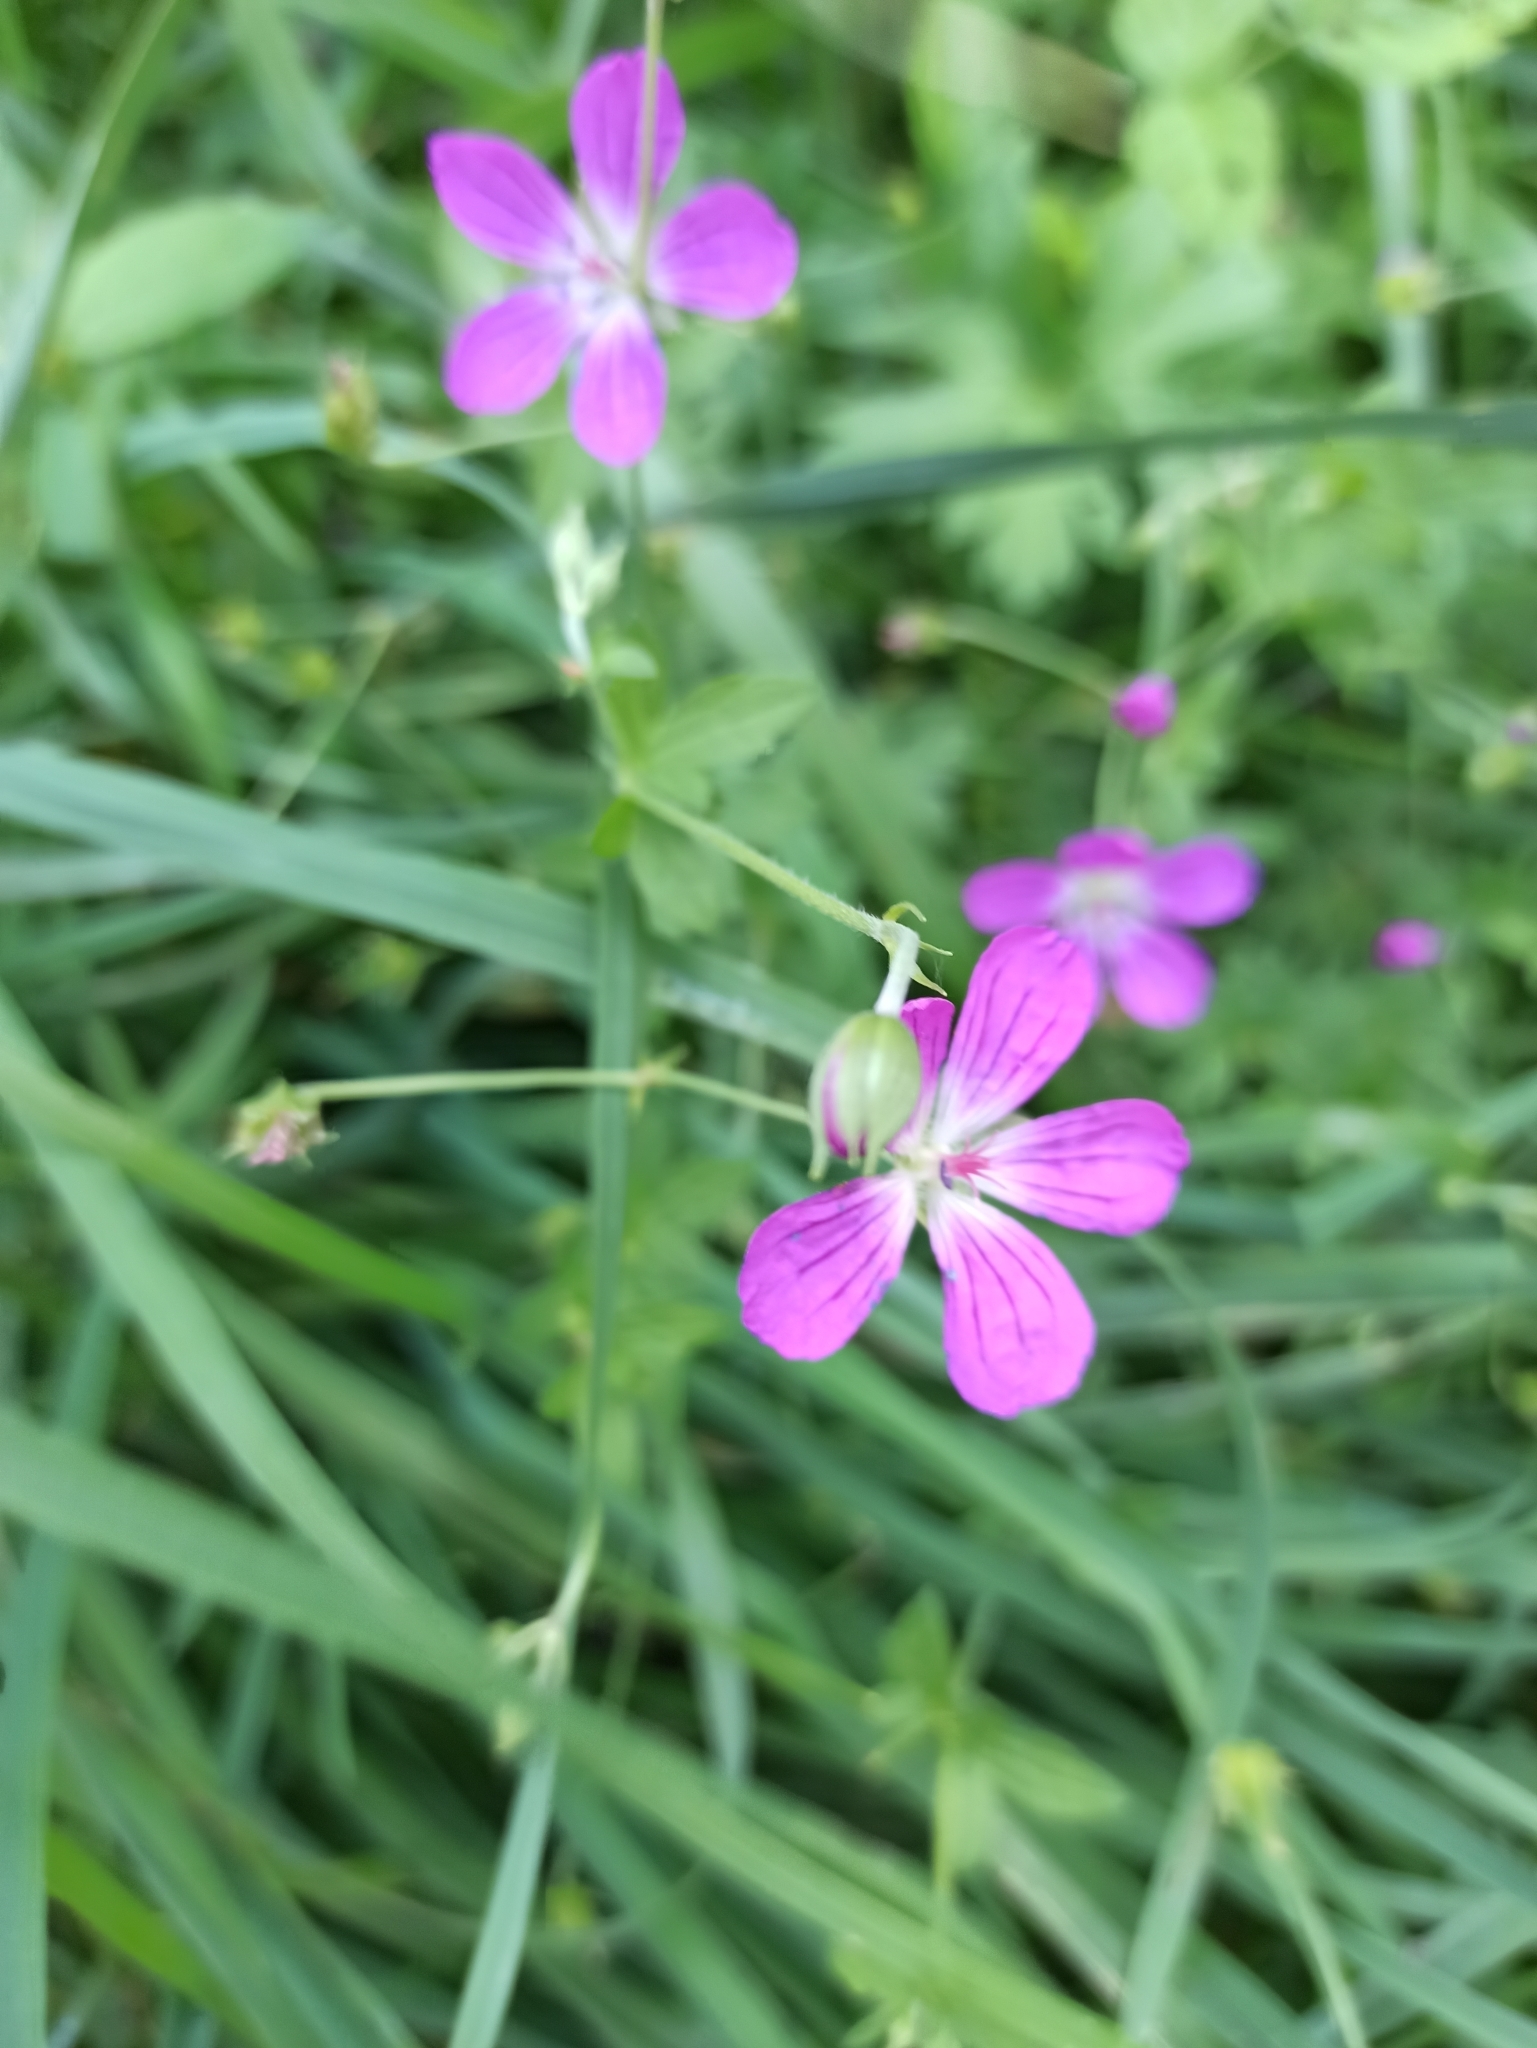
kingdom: Plantae
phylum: Tracheophyta
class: Magnoliopsida
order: Geraniales
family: Geraniaceae
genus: Geranium
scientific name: Geranium palustre
